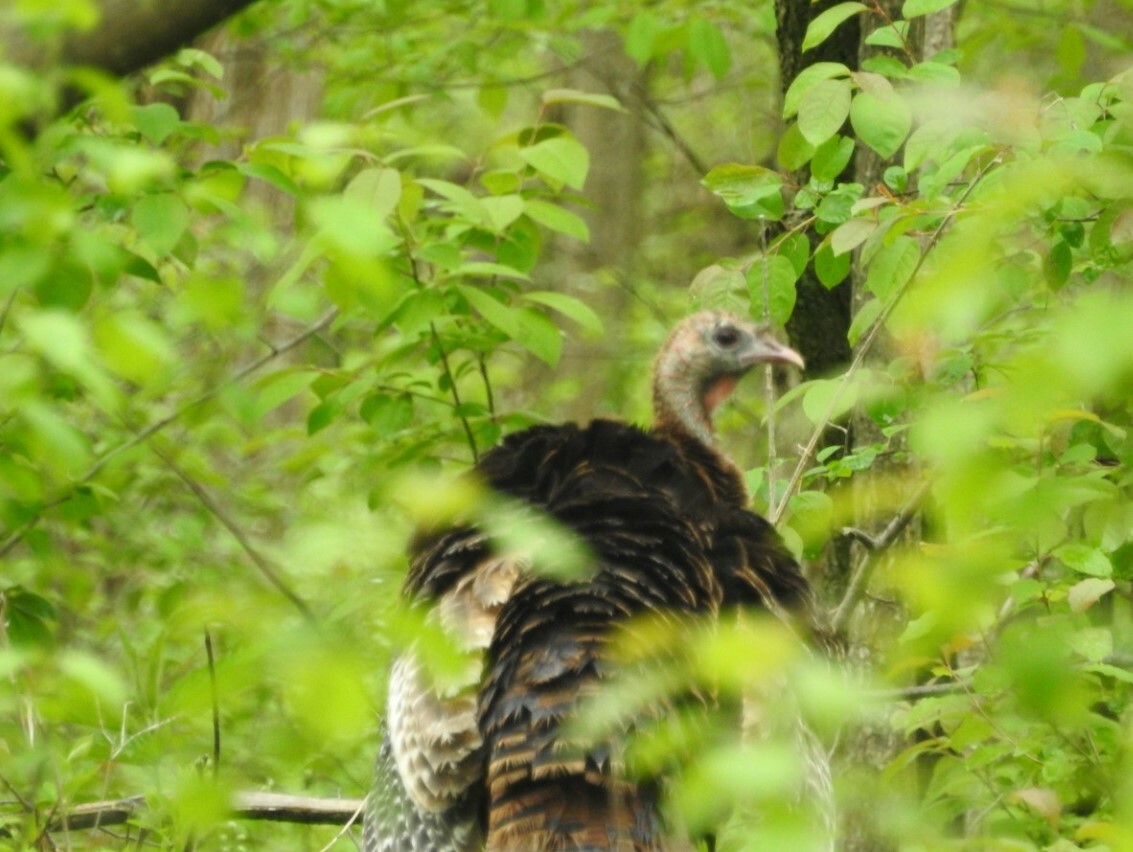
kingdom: Animalia
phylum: Chordata
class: Aves
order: Galliformes
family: Phasianidae
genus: Meleagris
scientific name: Meleagris gallopavo
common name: Wild turkey
